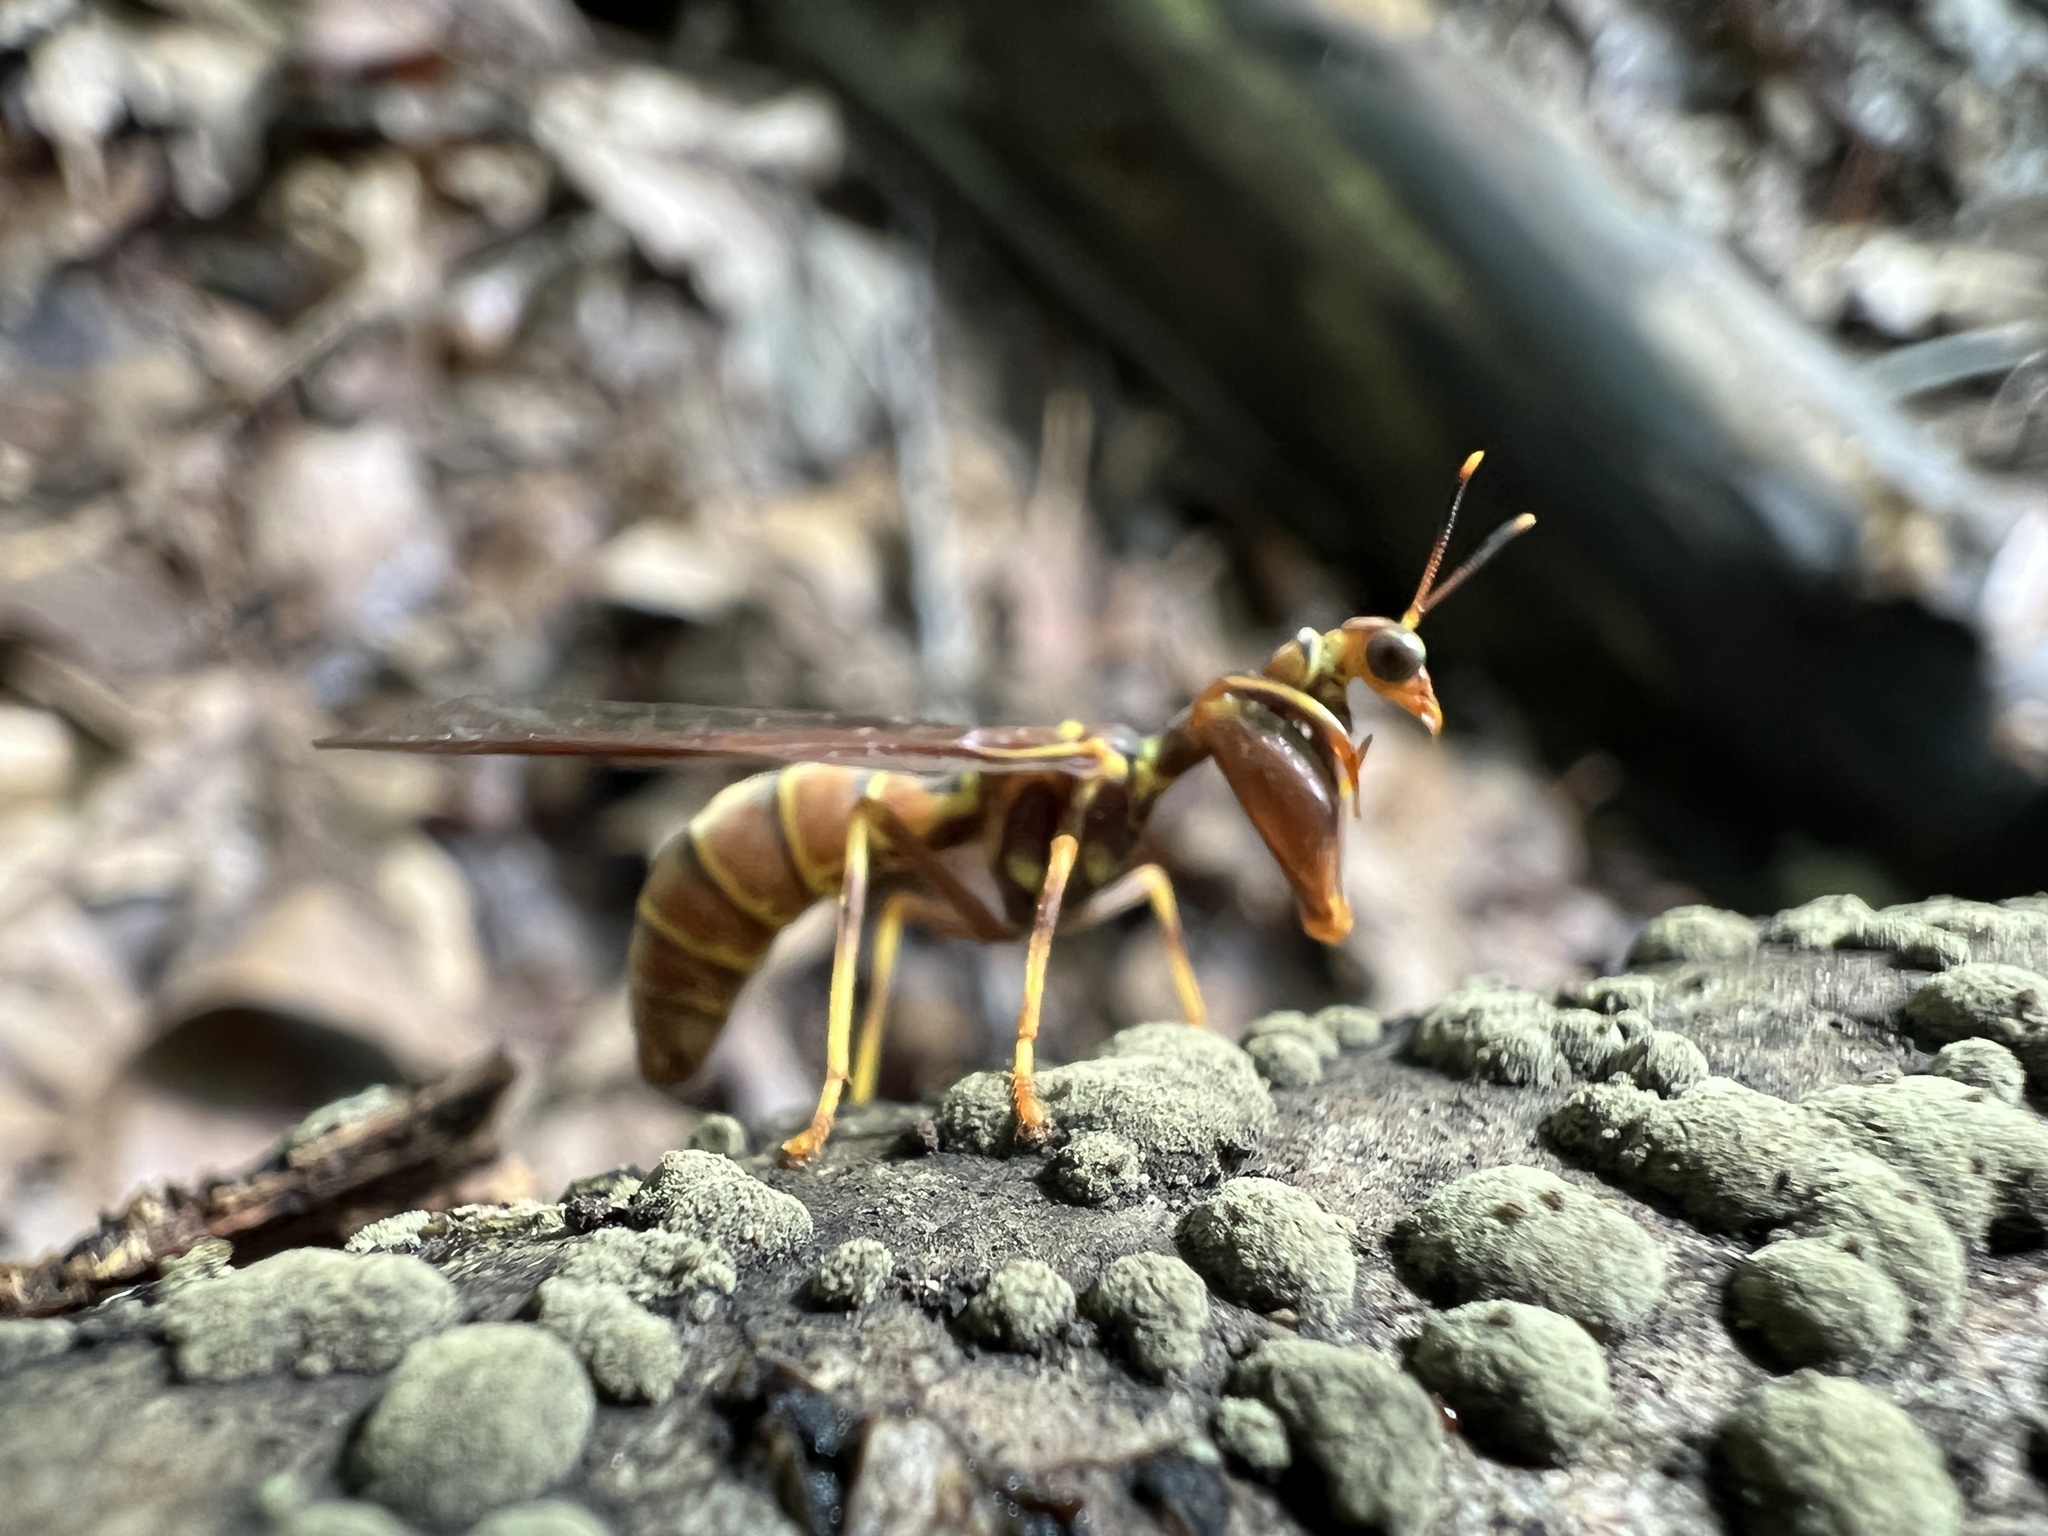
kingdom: Animalia
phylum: Arthropoda
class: Insecta
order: Neuroptera
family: Mantispidae
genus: Climaciella
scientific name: Climaciella brunnea
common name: Brown wasp mantidfly
